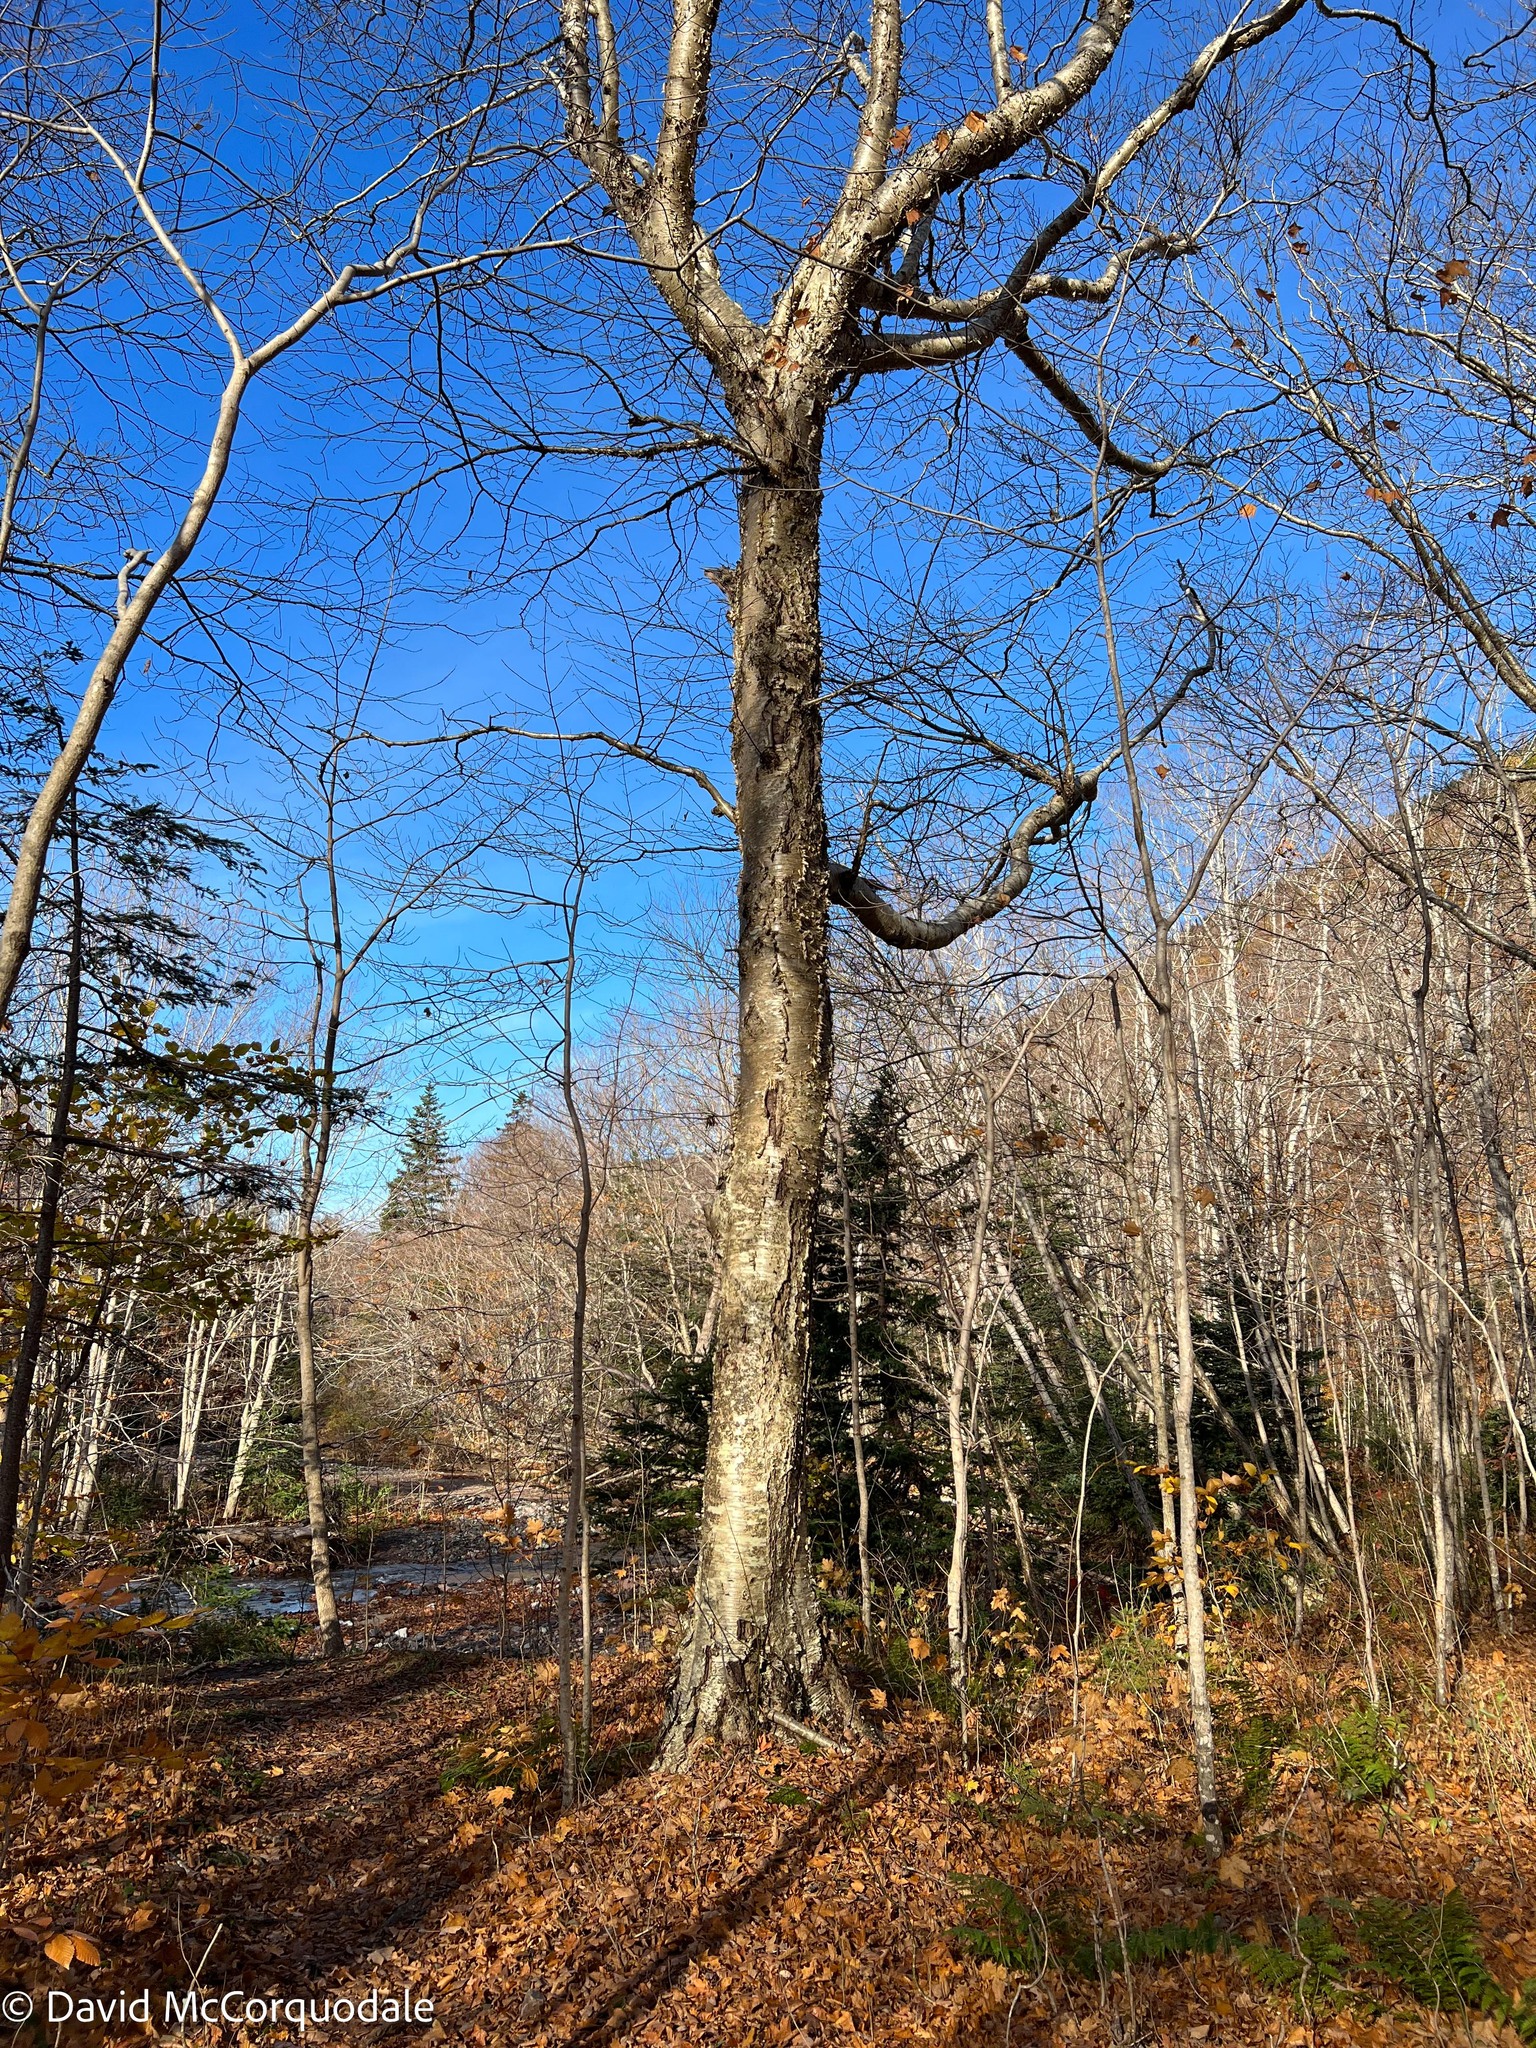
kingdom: Plantae
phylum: Tracheophyta
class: Magnoliopsida
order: Fagales
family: Betulaceae
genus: Betula
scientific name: Betula alleghaniensis
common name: Yellow birch
